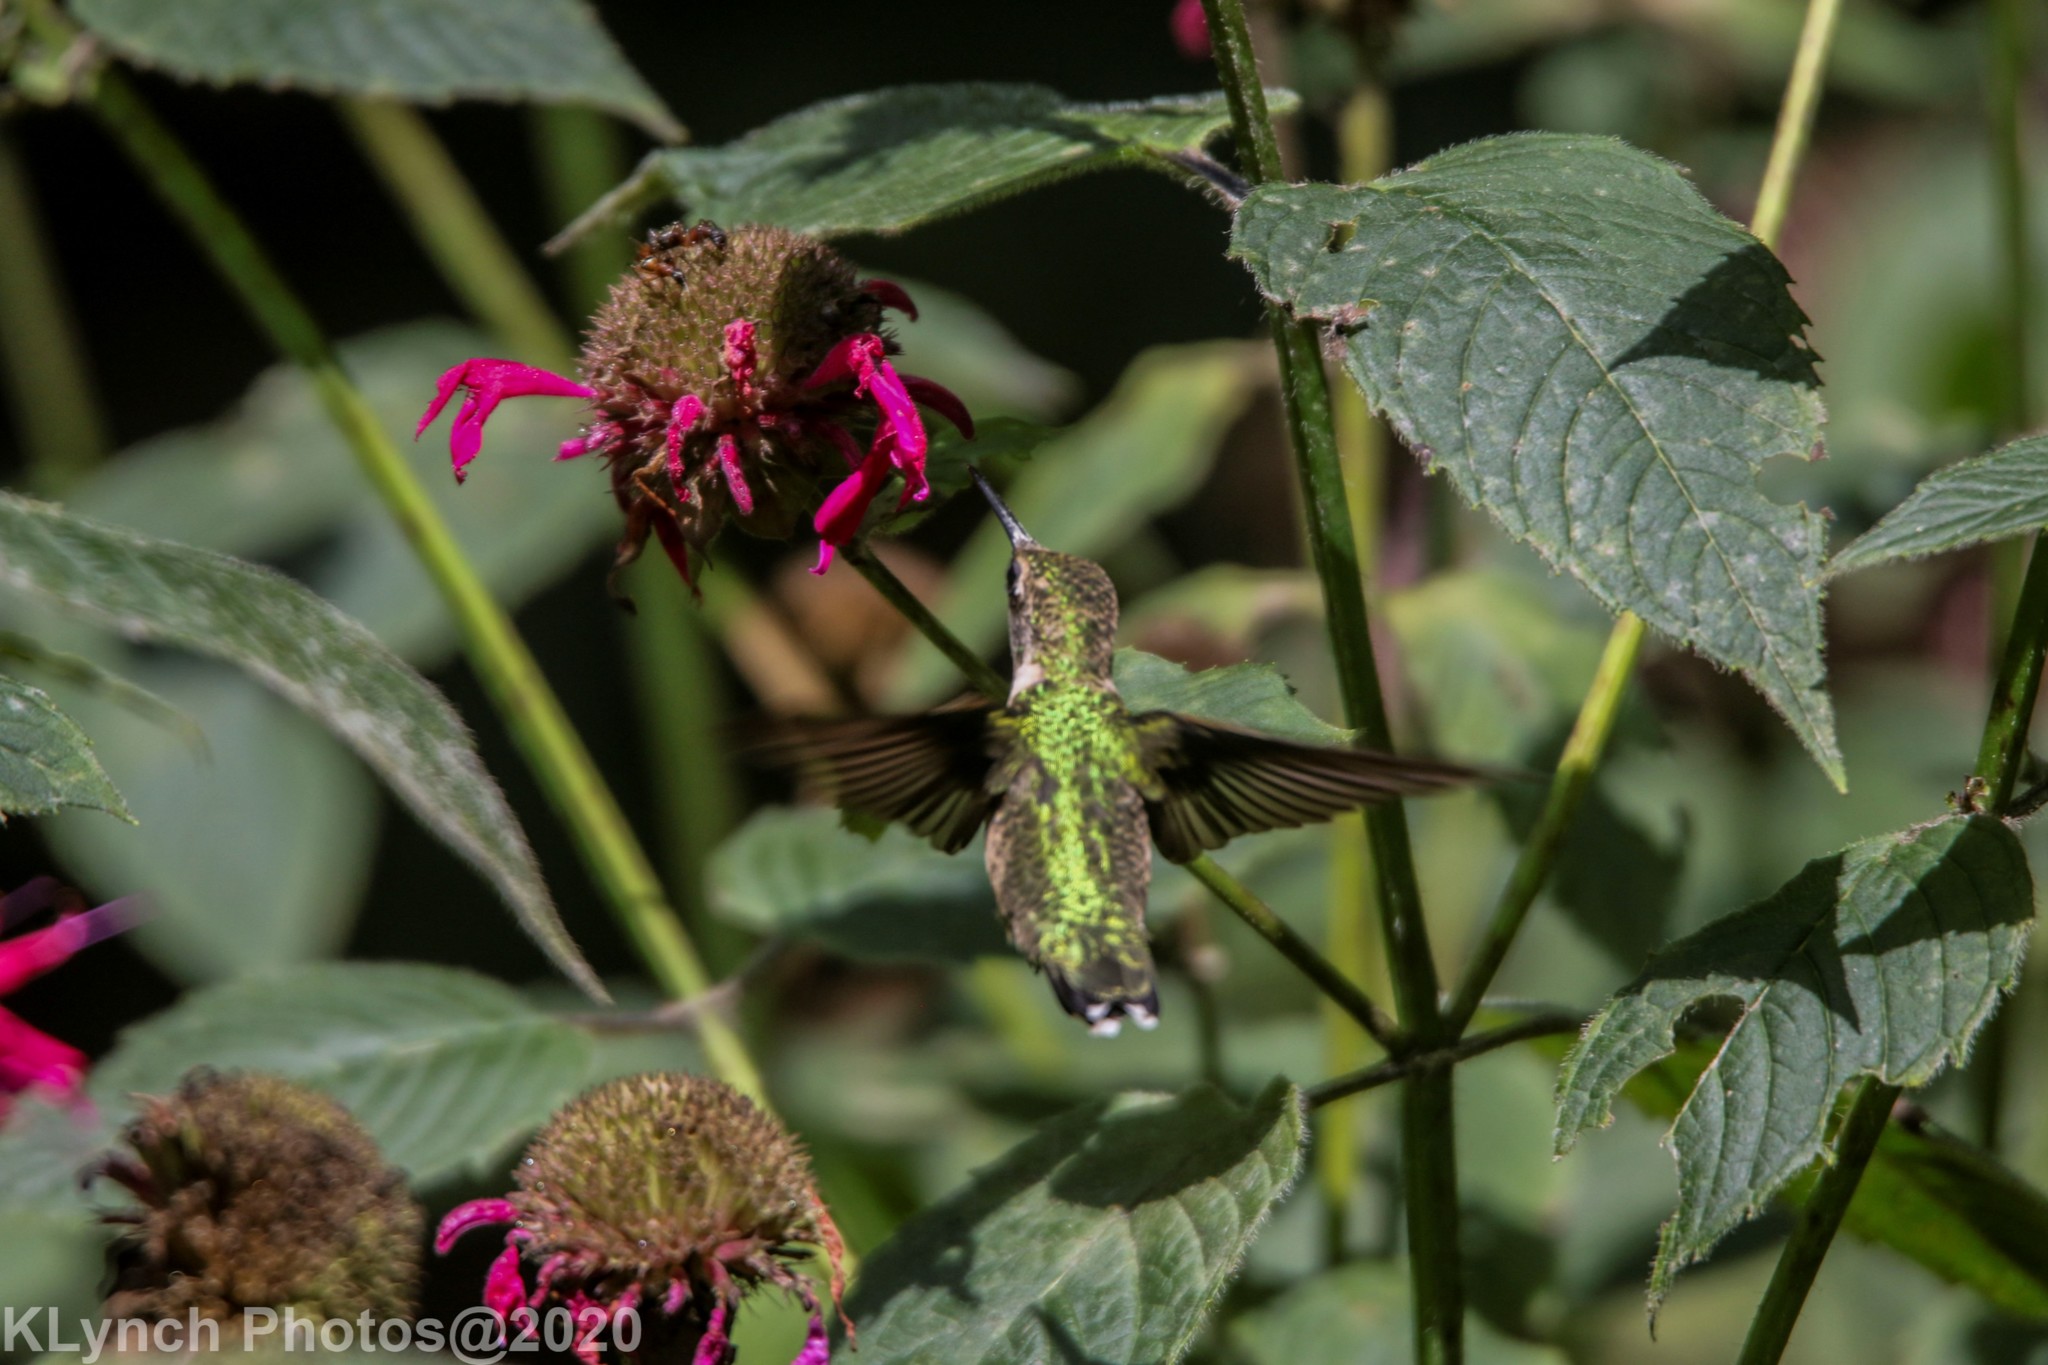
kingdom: Animalia
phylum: Chordata
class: Aves
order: Apodiformes
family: Trochilidae
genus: Archilochus
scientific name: Archilochus colubris
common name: Ruby-throated hummingbird
